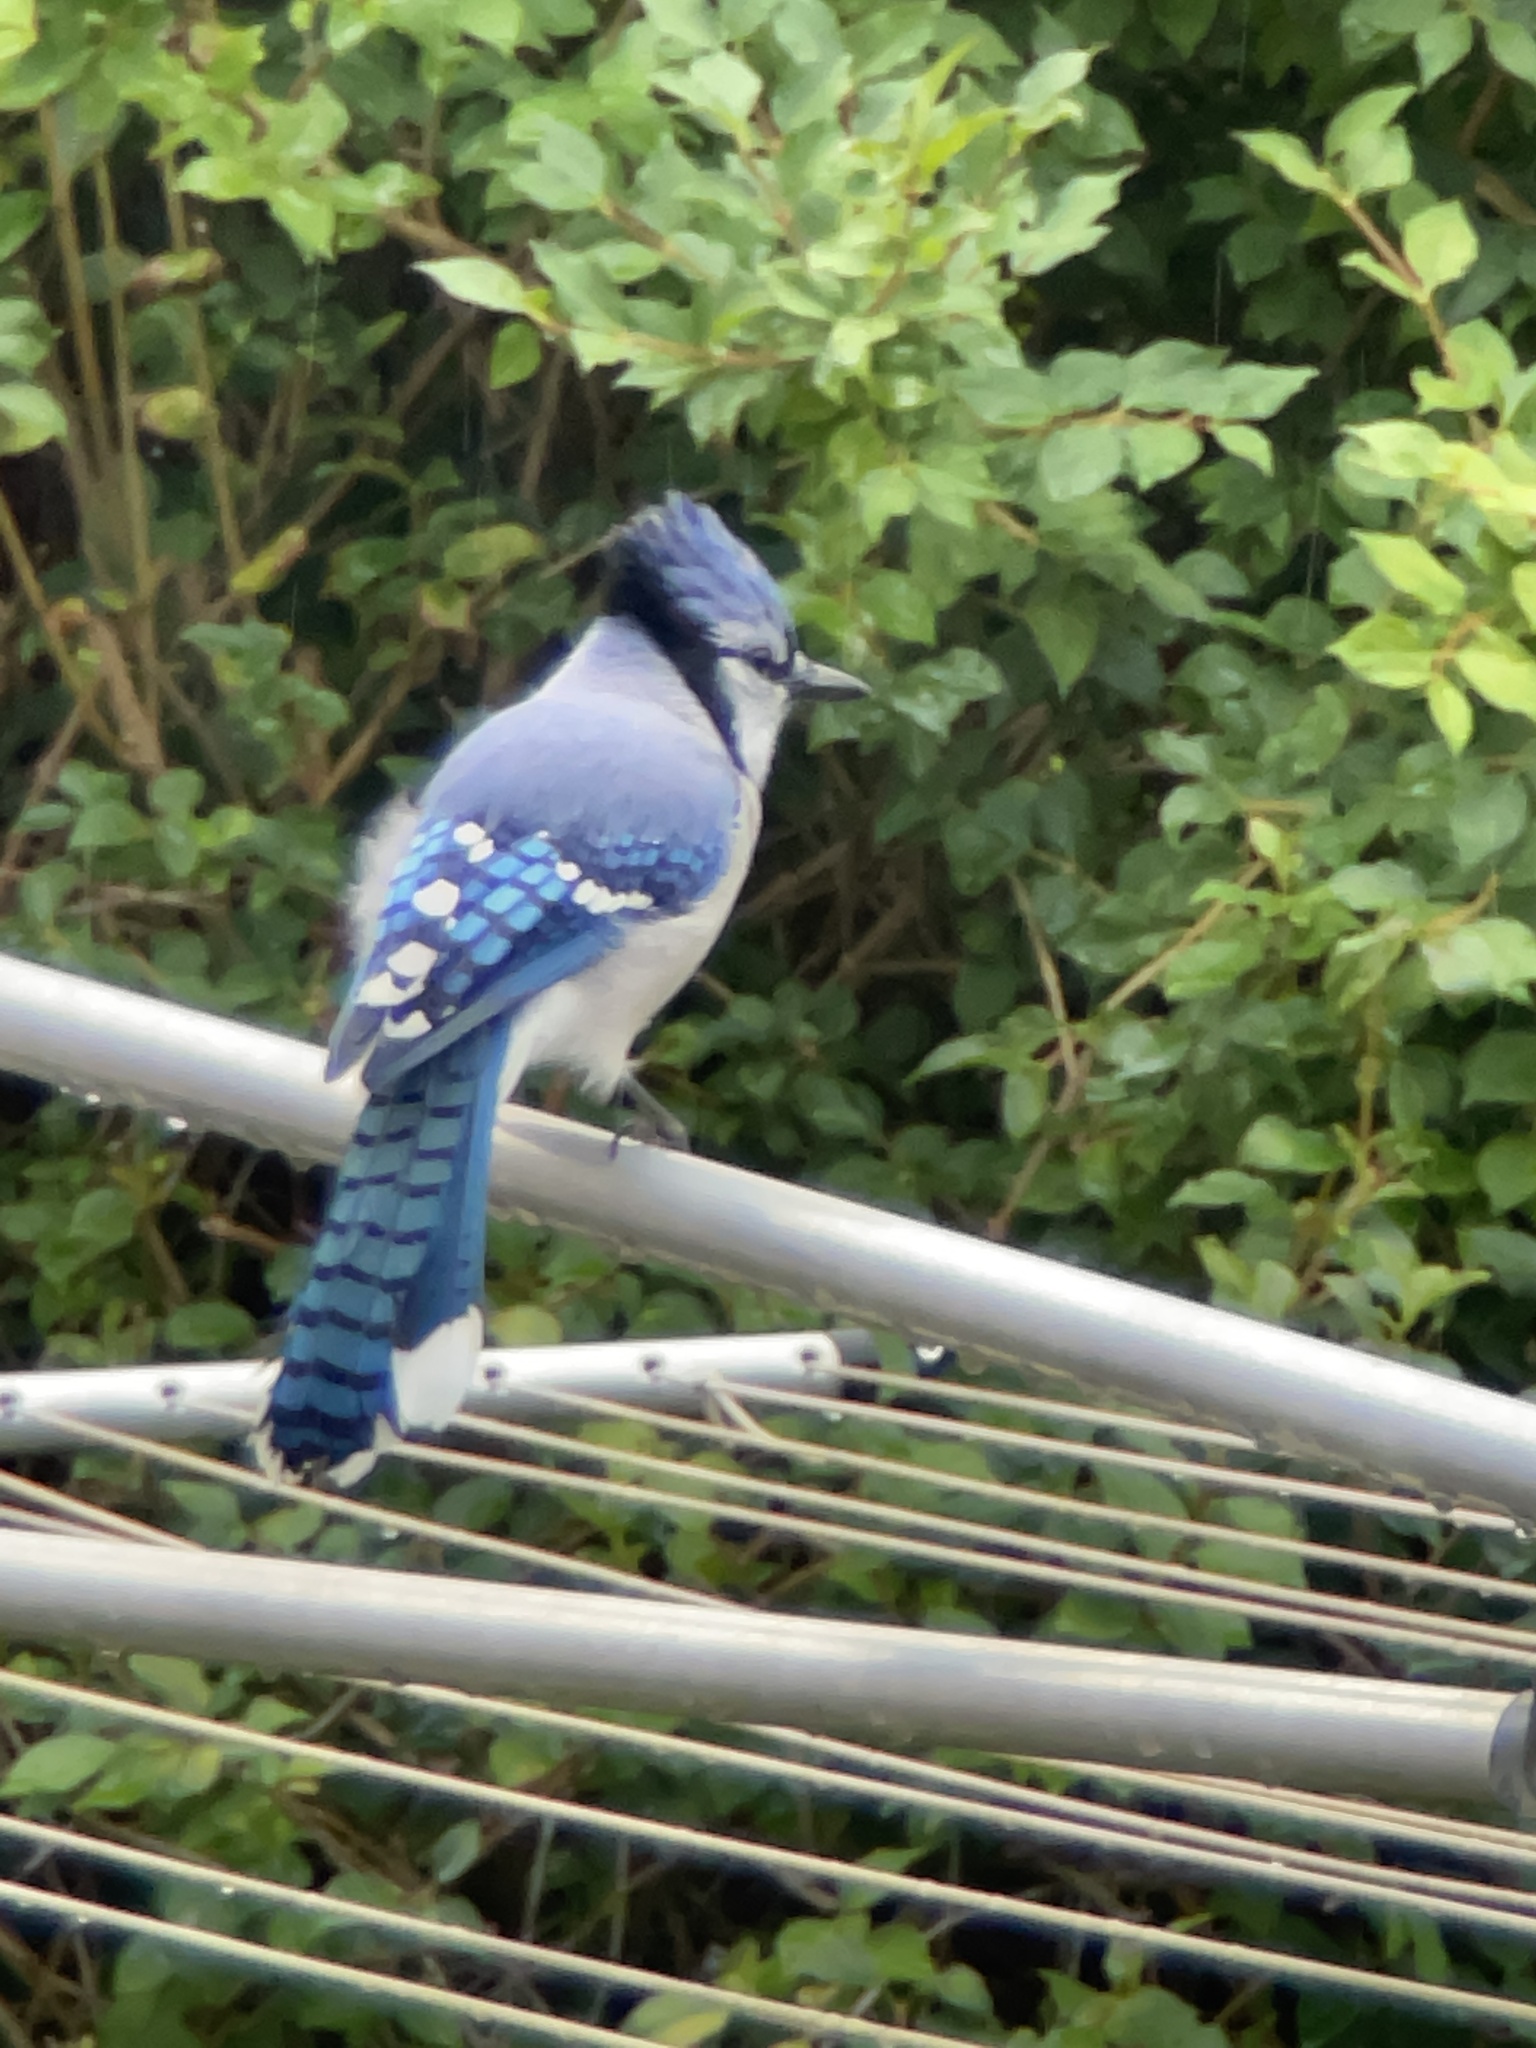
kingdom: Animalia
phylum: Chordata
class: Aves
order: Passeriformes
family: Corvidae
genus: Cyanocitta
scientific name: Cyanocitta cristata
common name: Blue jay
